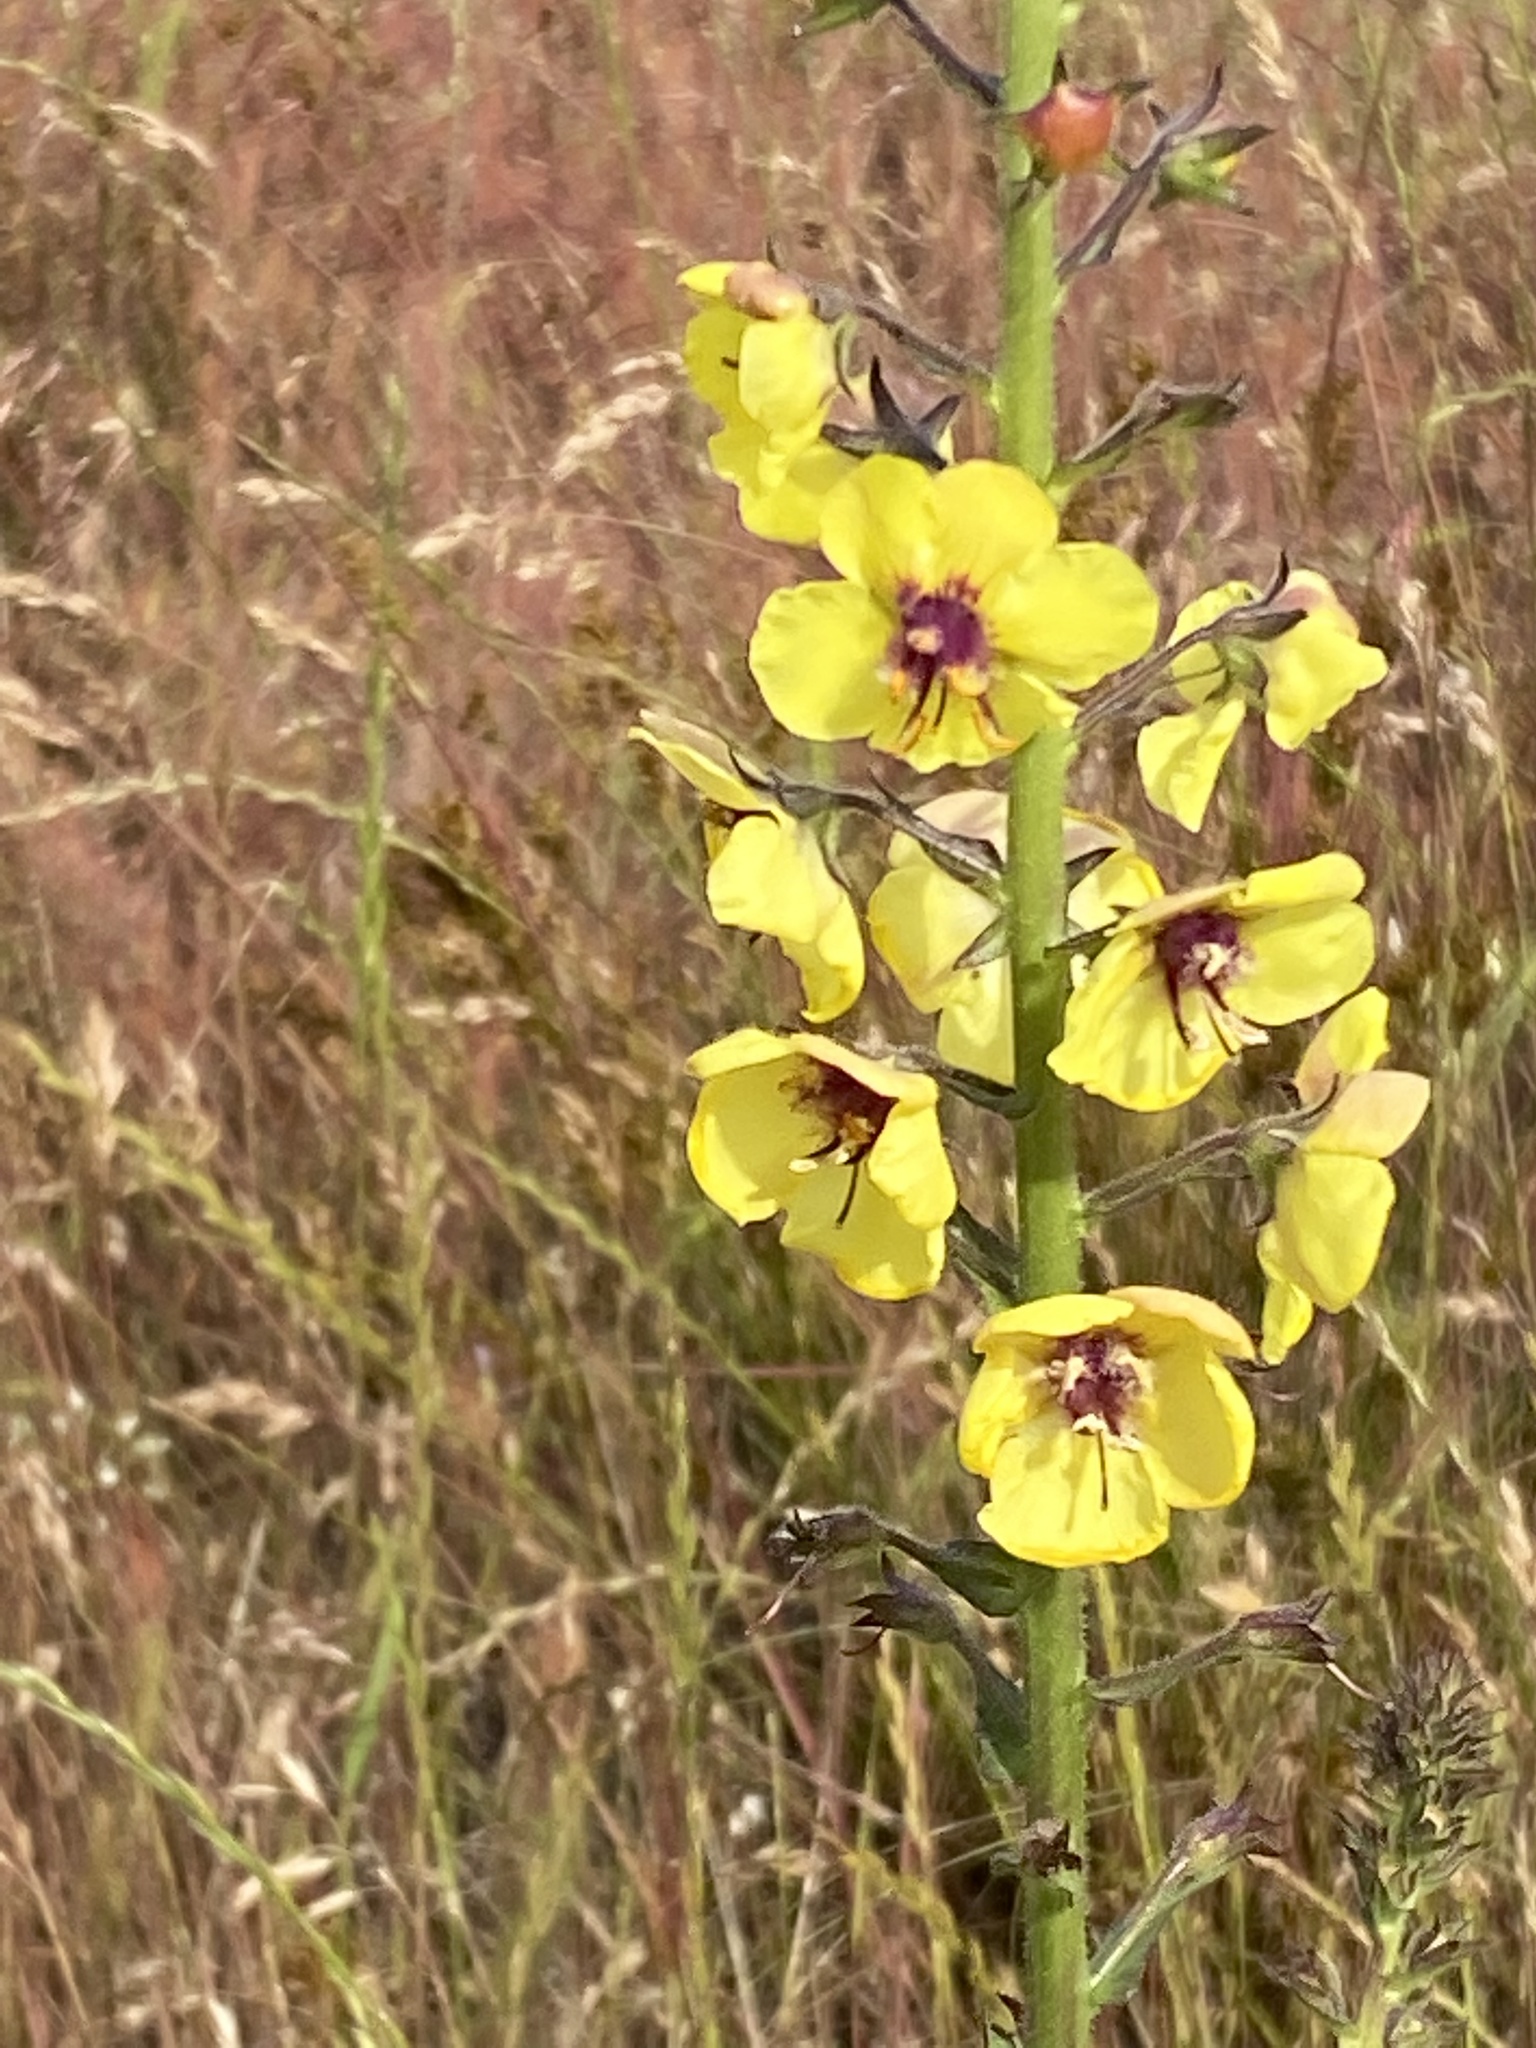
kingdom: Plantae
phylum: Tracheophyta
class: Magnoliopsida
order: Lamiales
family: Scrophulariaceae
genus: Verbascum
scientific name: Verbascum blattaria
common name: Moth mullein
